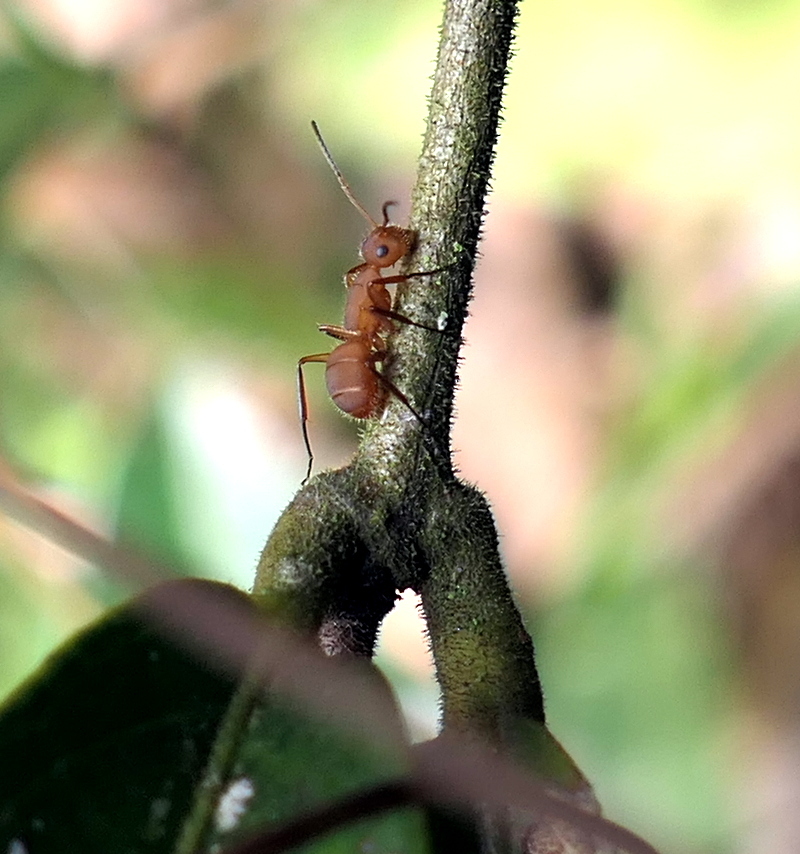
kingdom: Animalia
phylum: Arthropoda
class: Insecta
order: Hymenoptera
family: Formicidae
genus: Camponotus
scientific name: Camponotus rectangularis
